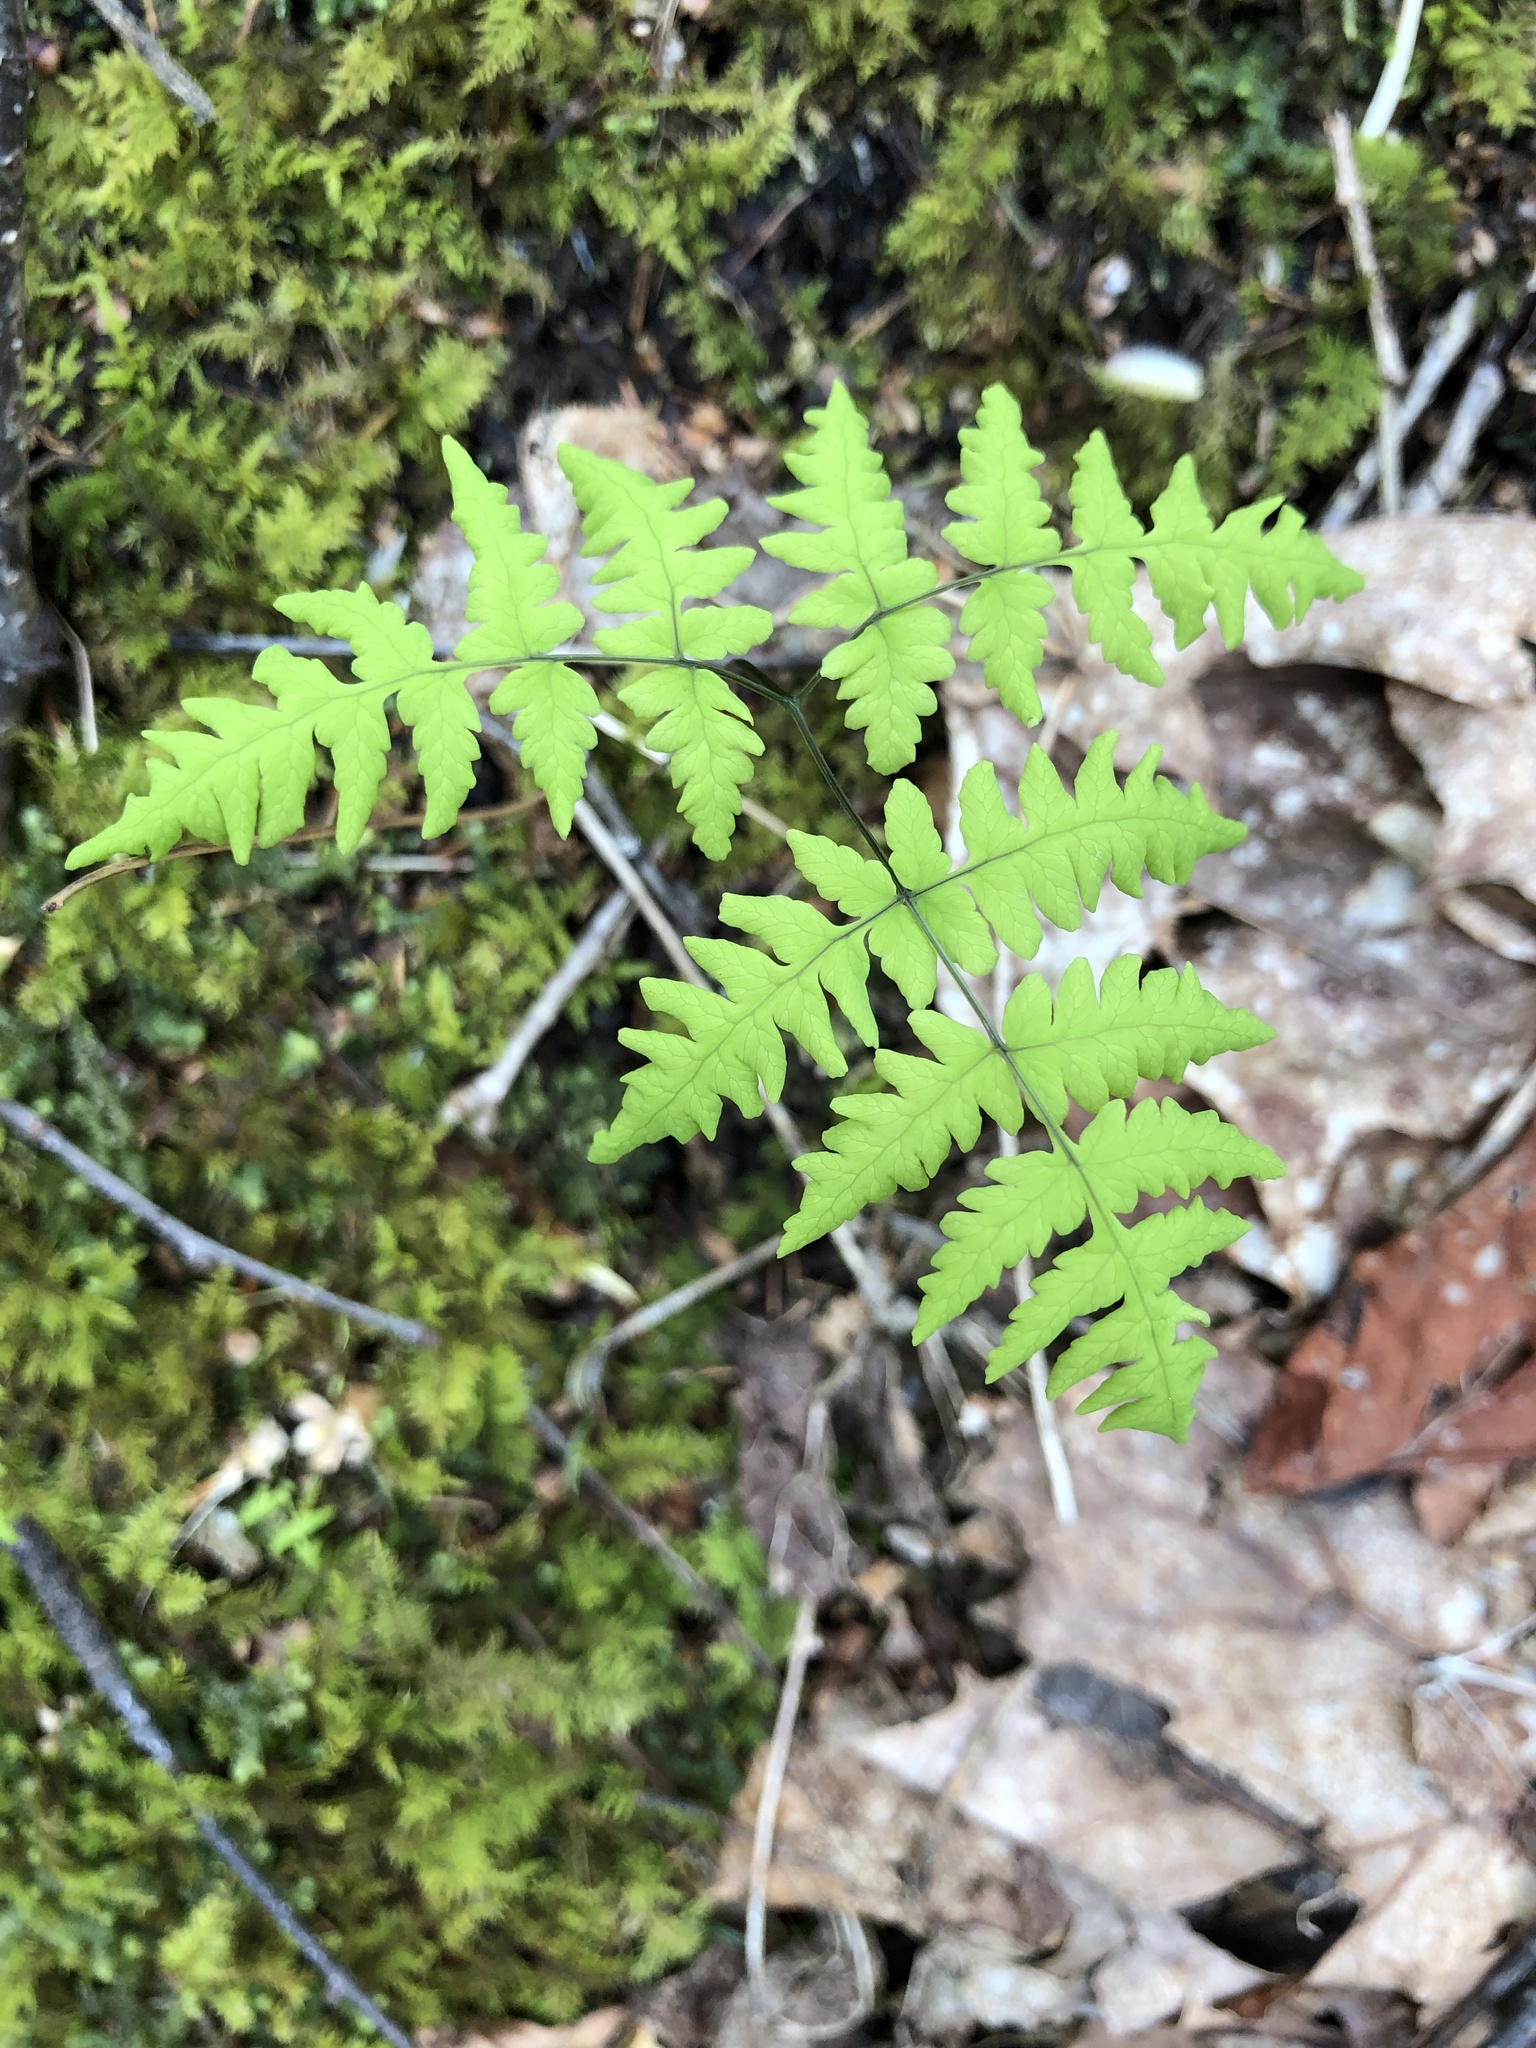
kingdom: Plantae
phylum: Tracheophyta
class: Polypodiopsida
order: Polypodiales
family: Cystopteridaceae
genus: Gymnocarpium
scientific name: Gymnocarpium dryopteris
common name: Oak fern
